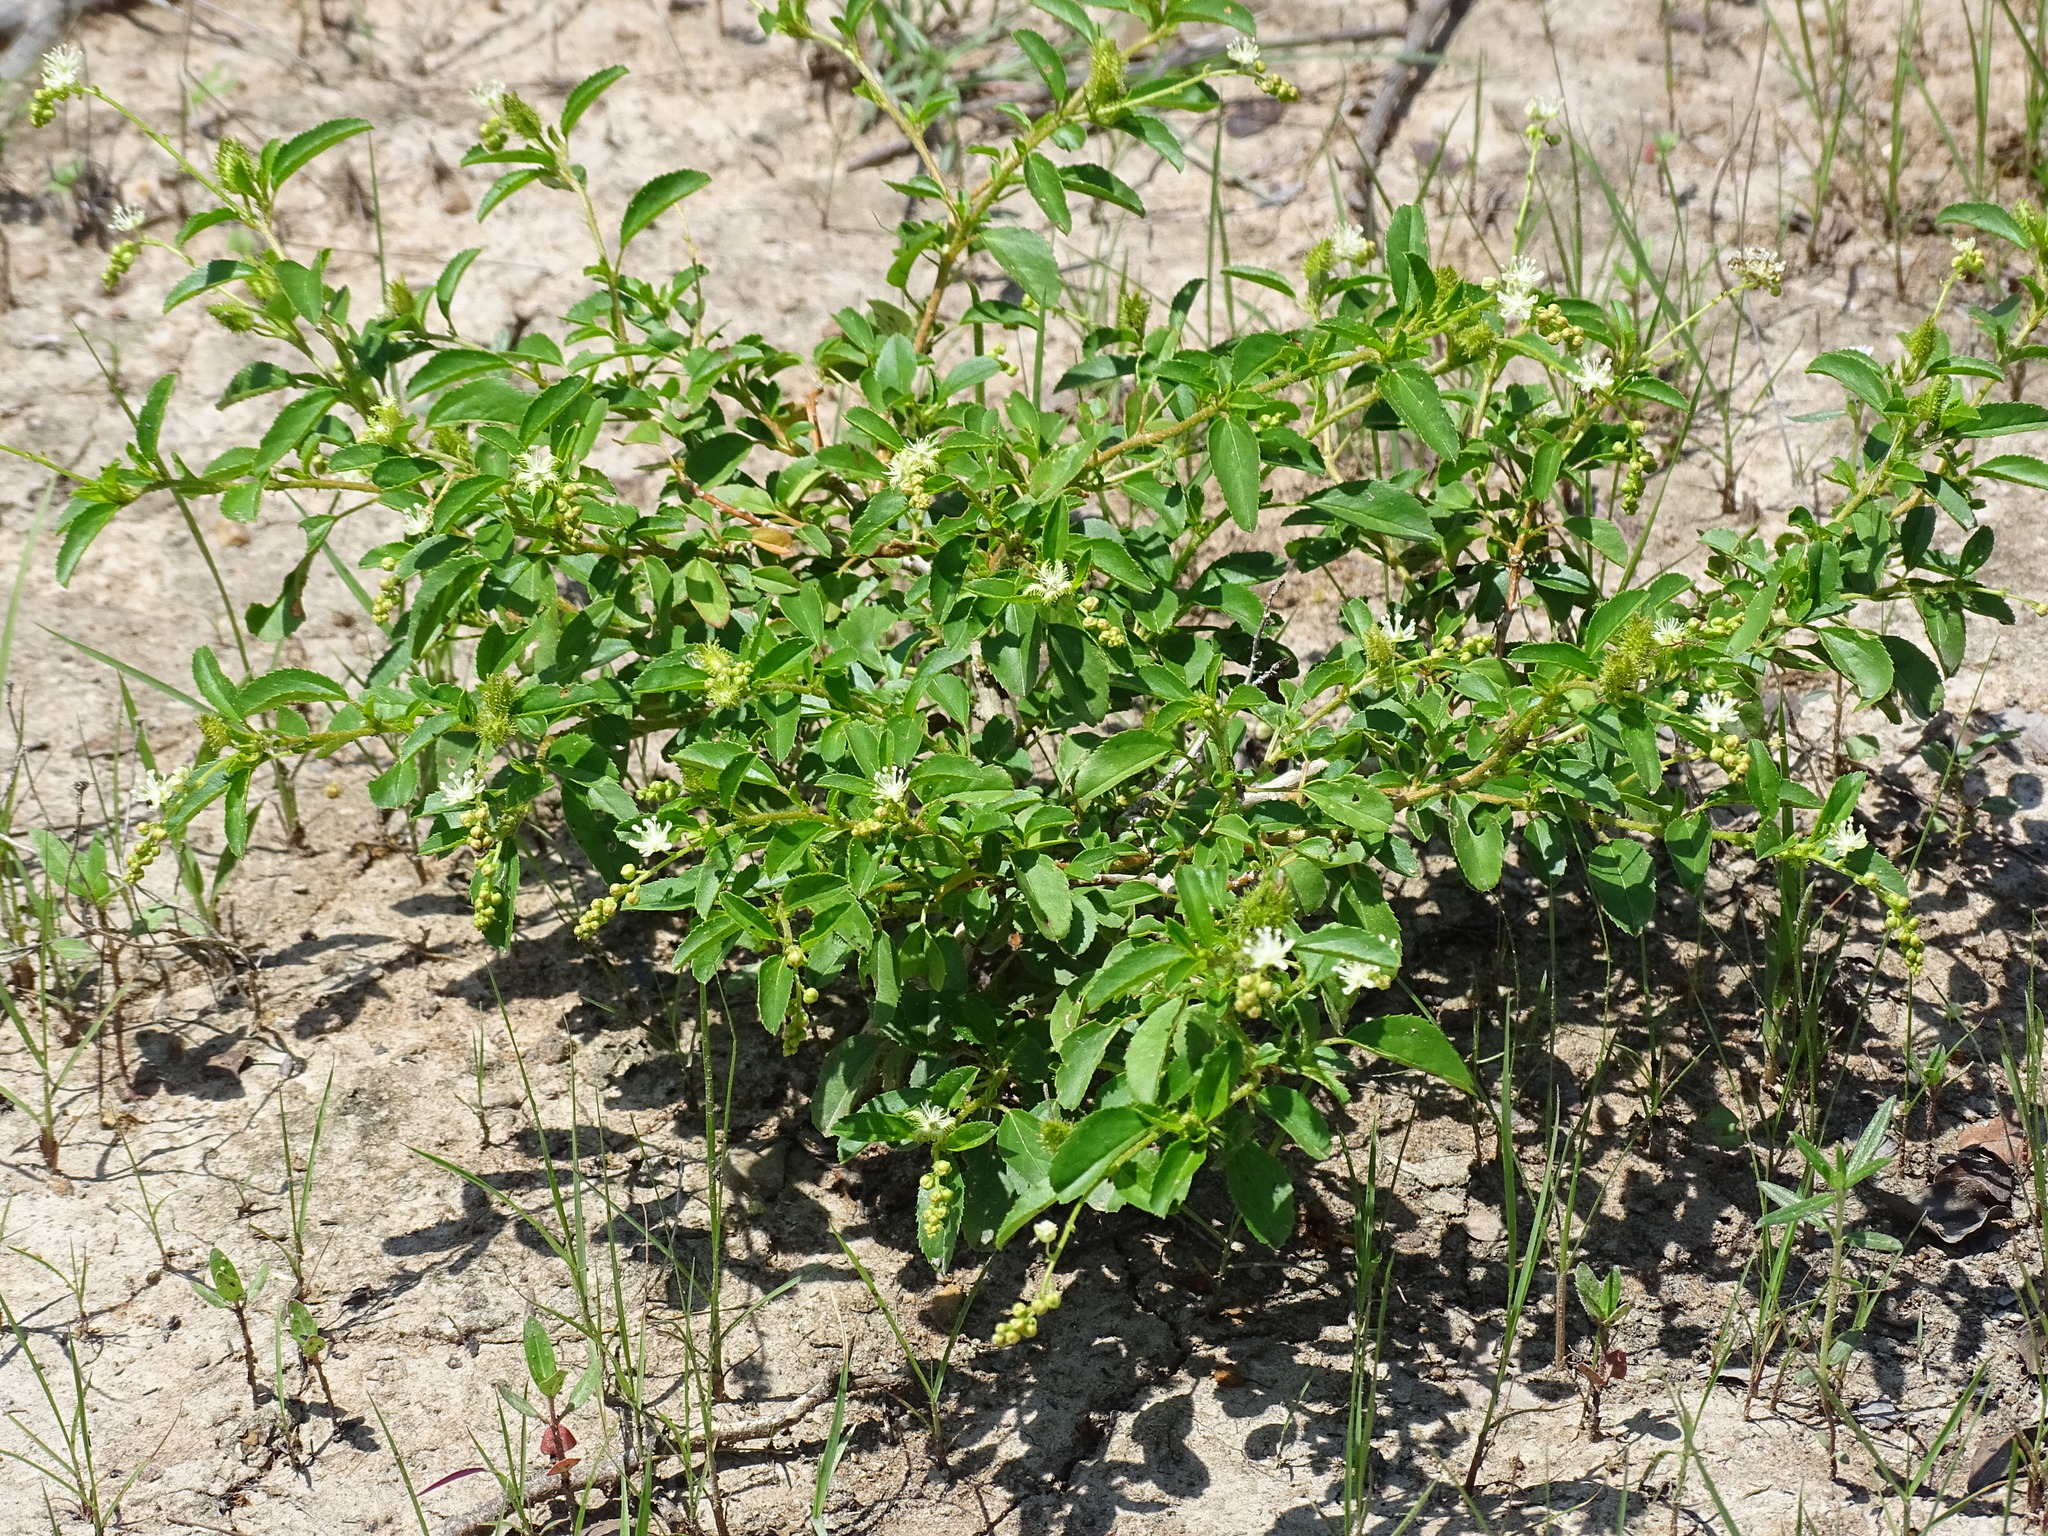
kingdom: Plantae
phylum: Tracheophyta
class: Magnoliopsida
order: Malpighiales
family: Euphorbiaceae
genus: Croton
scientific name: Croton ovalifolius
